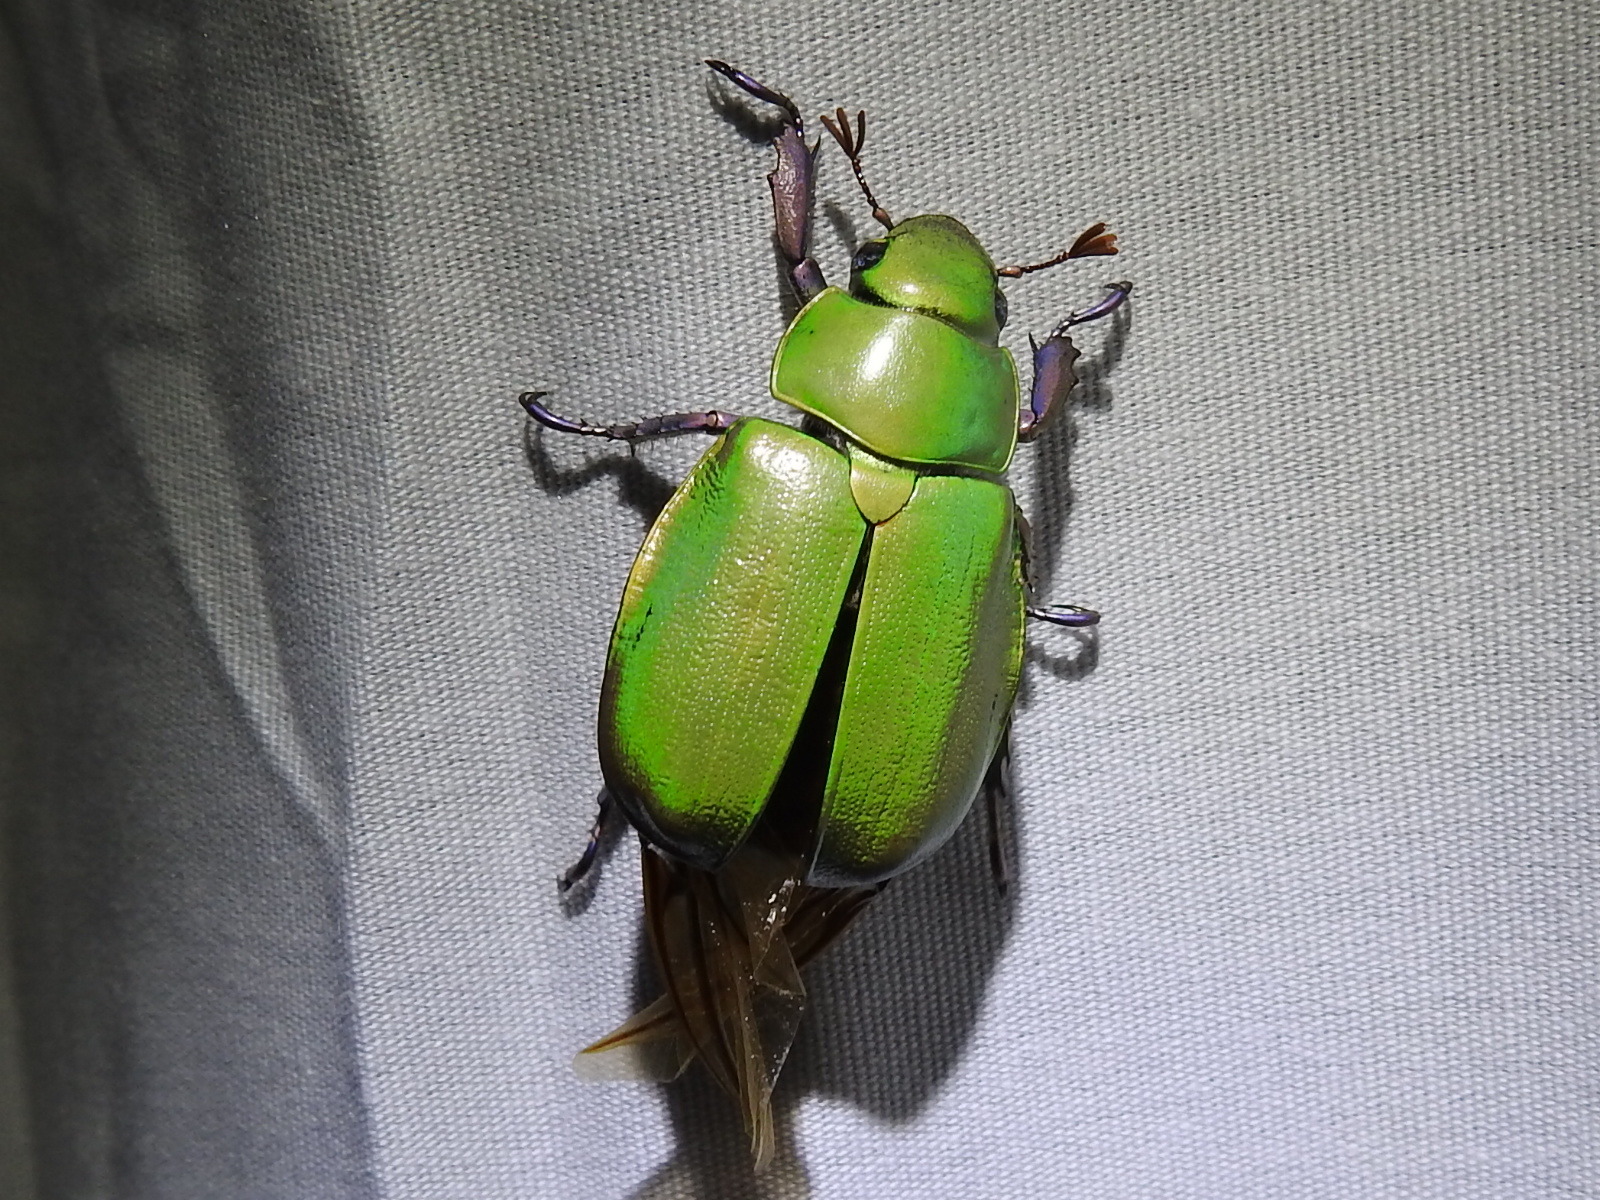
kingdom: Animalia
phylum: Arthropoda
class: Insecta
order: Coleoptera
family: Scarabaeidae
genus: Chrysina
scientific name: Chrysina beyeri
